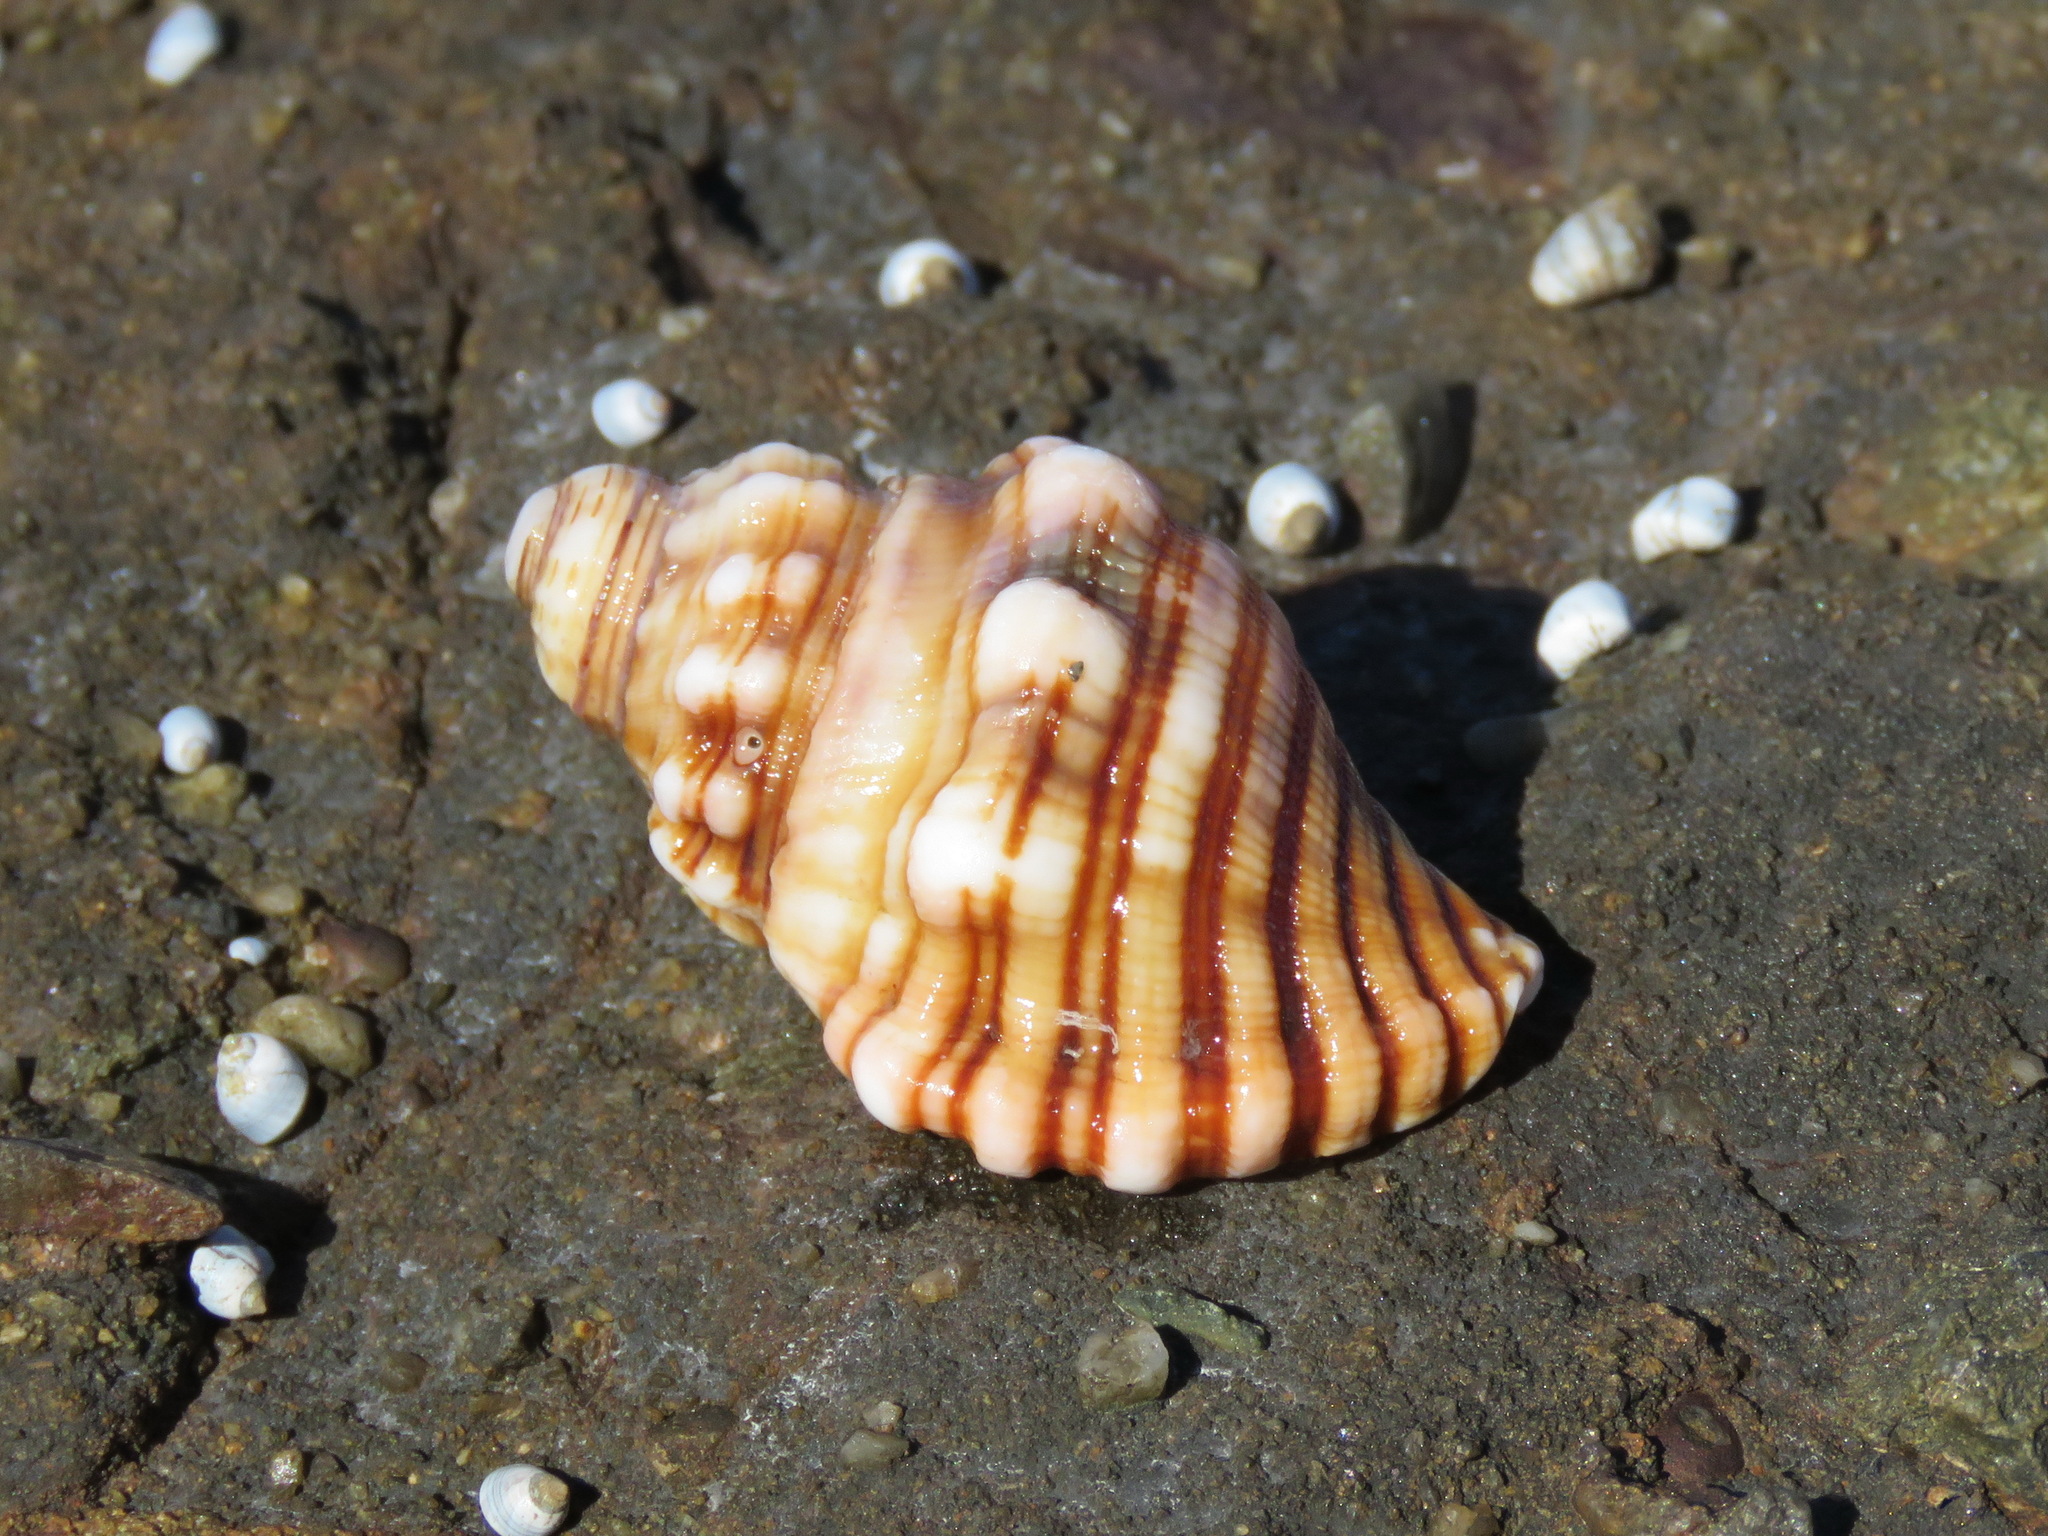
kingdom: Animalia
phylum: Mollusca
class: Gastropoda
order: Littorinimorpha
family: Cymatiidae
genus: Cabestana
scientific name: Cabestana spengleri
